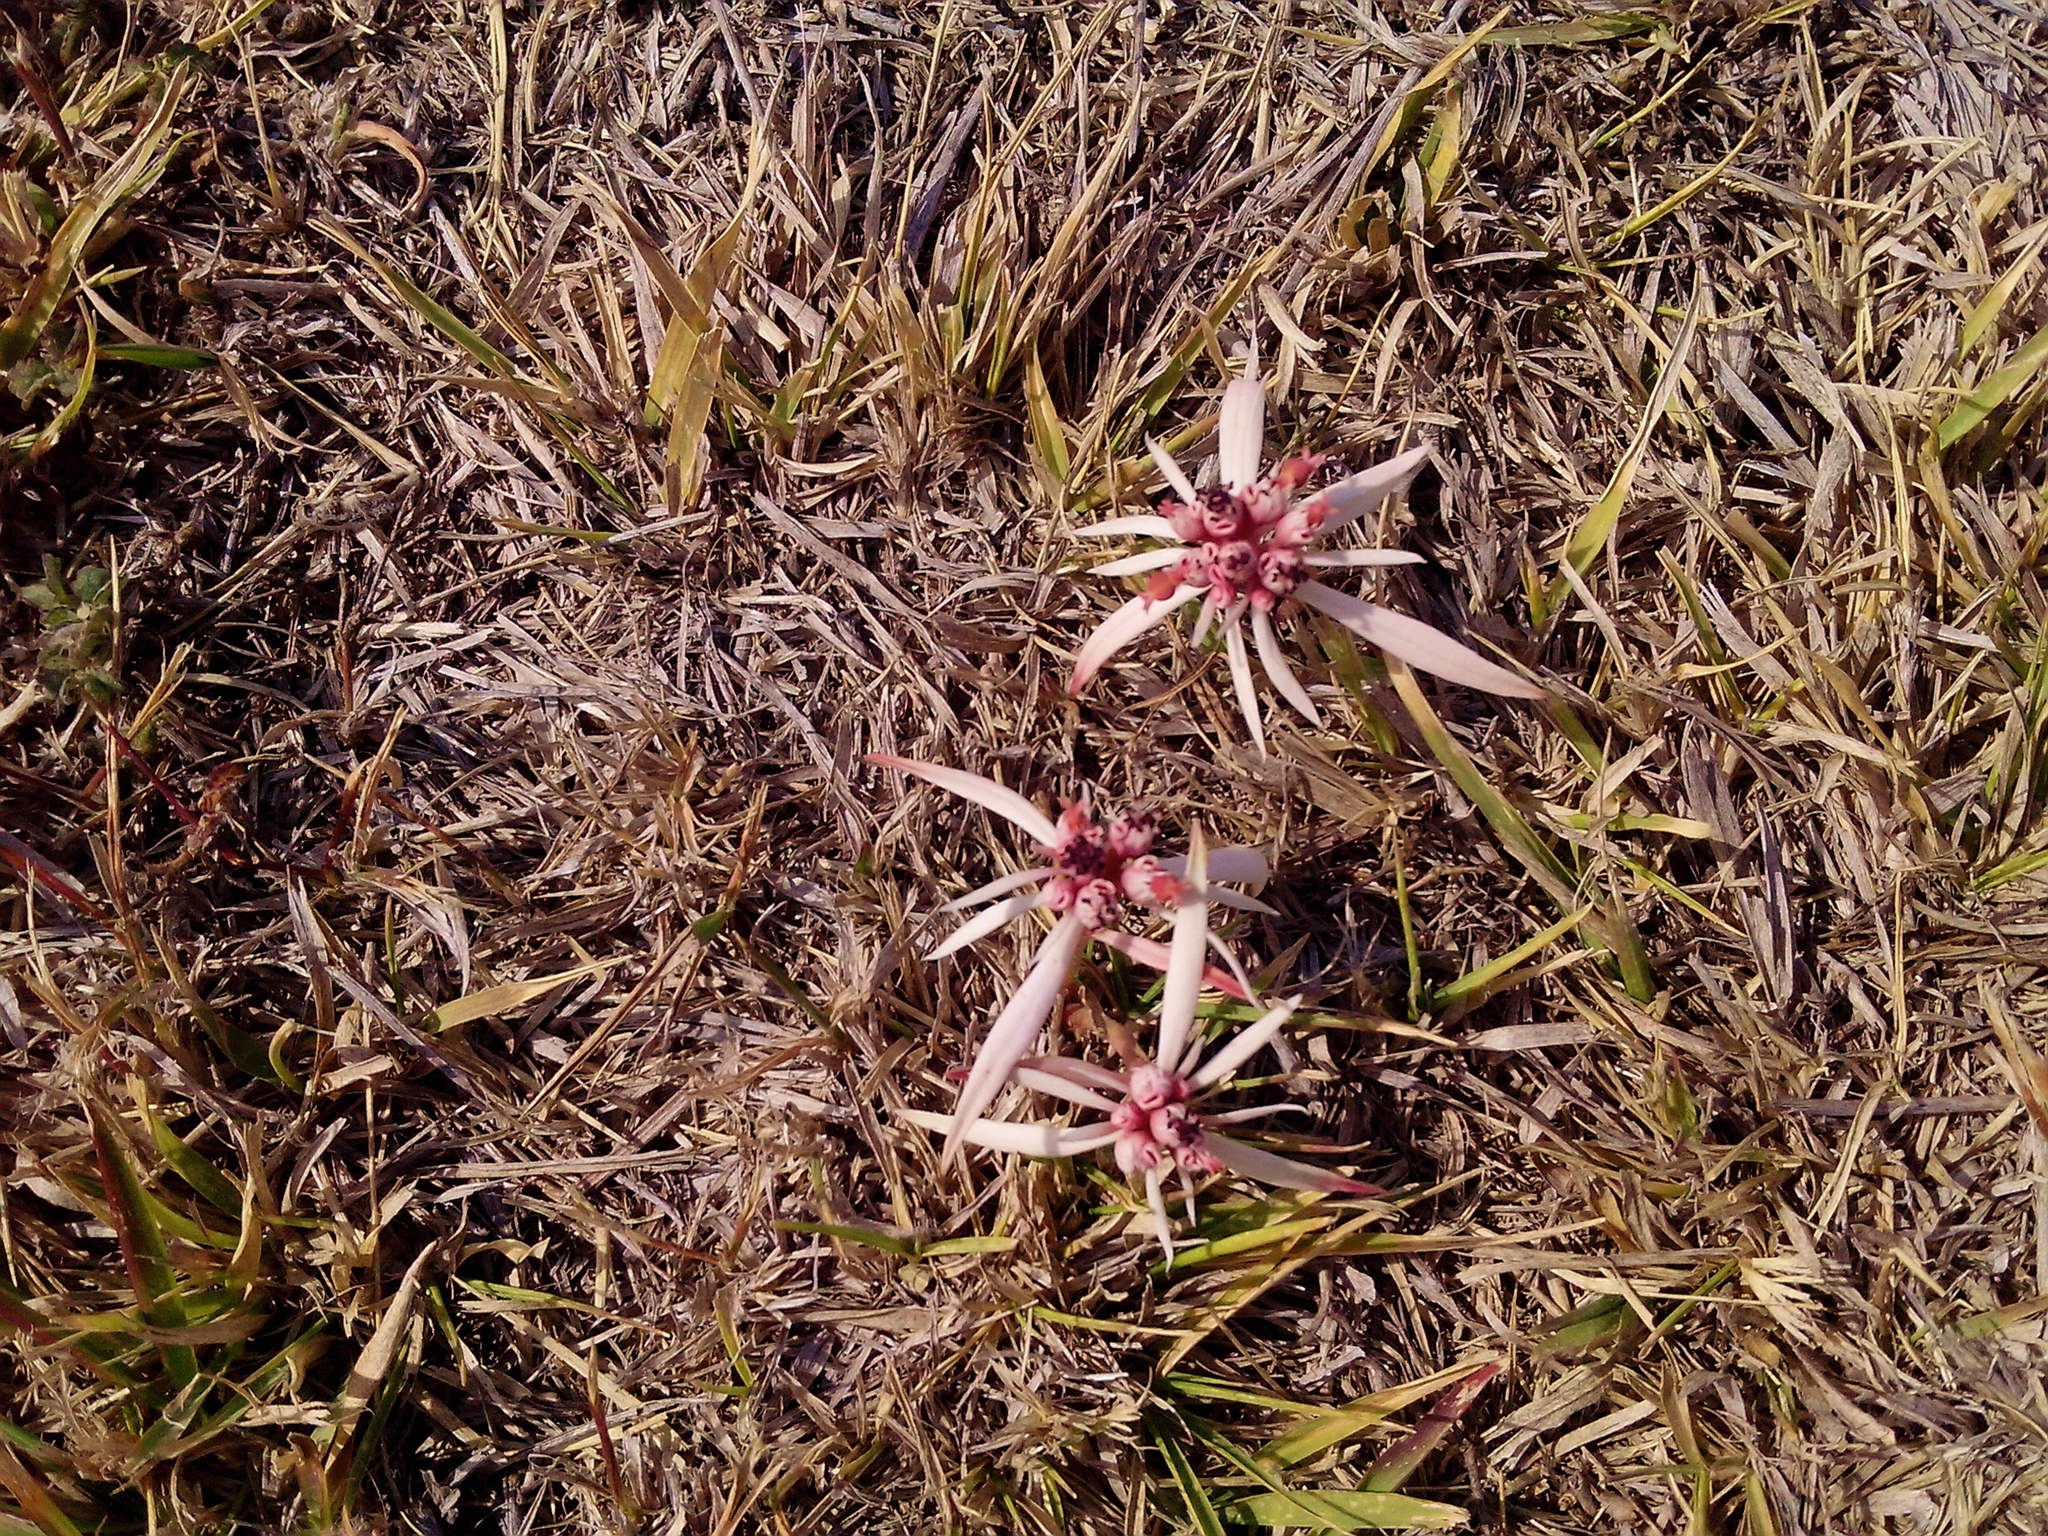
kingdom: Plantae
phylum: Tracheophyta
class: Magnoliopsida
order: Malpighiales
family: Euphorbiaceae
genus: Euphorbia
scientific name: Euphorbia radians
